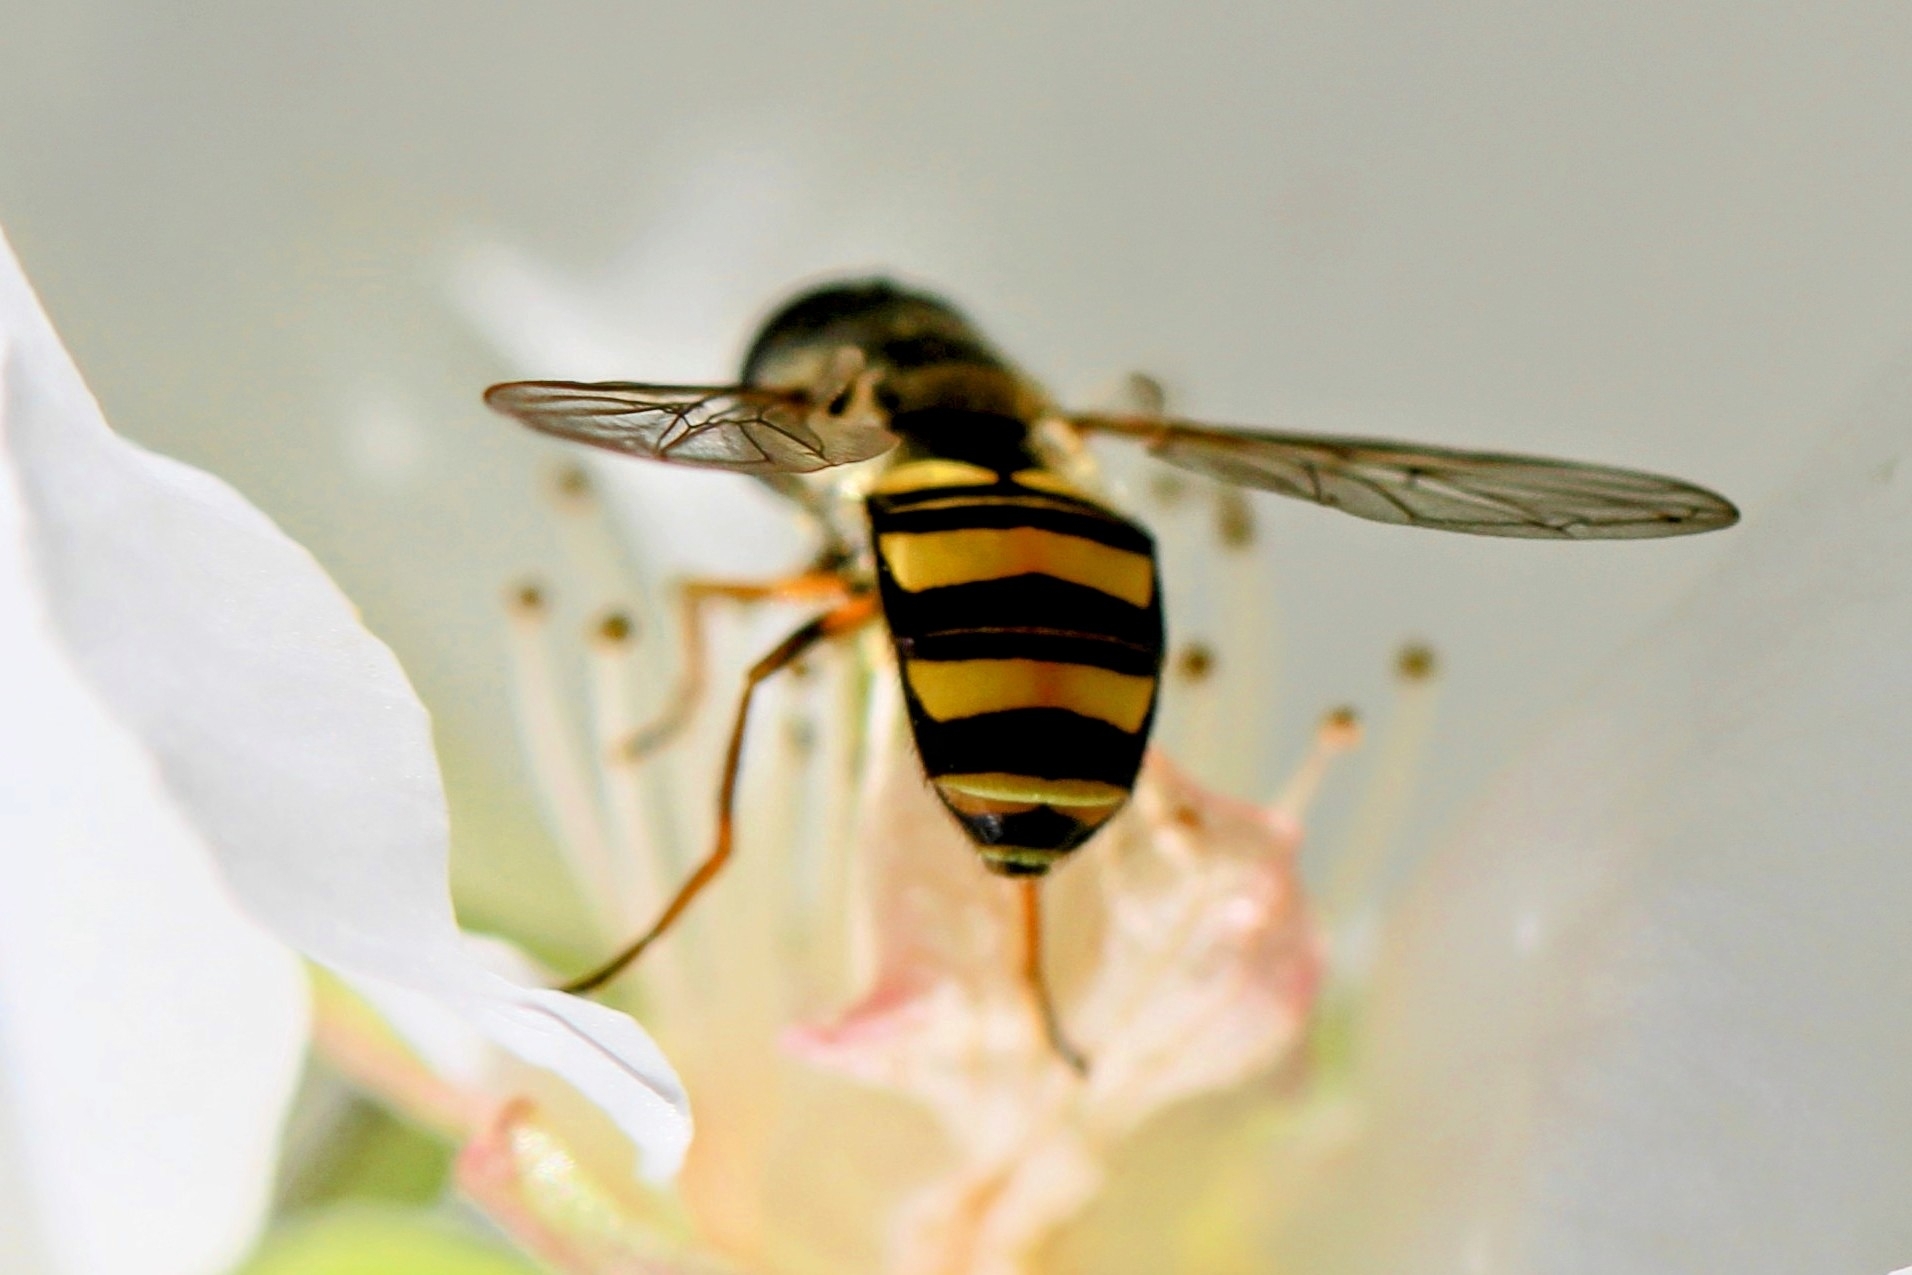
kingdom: Animalia
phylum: Arthropoda
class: Insecta
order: Diptera
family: Syrphidae
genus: Eupeodes
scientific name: Eupeodes
